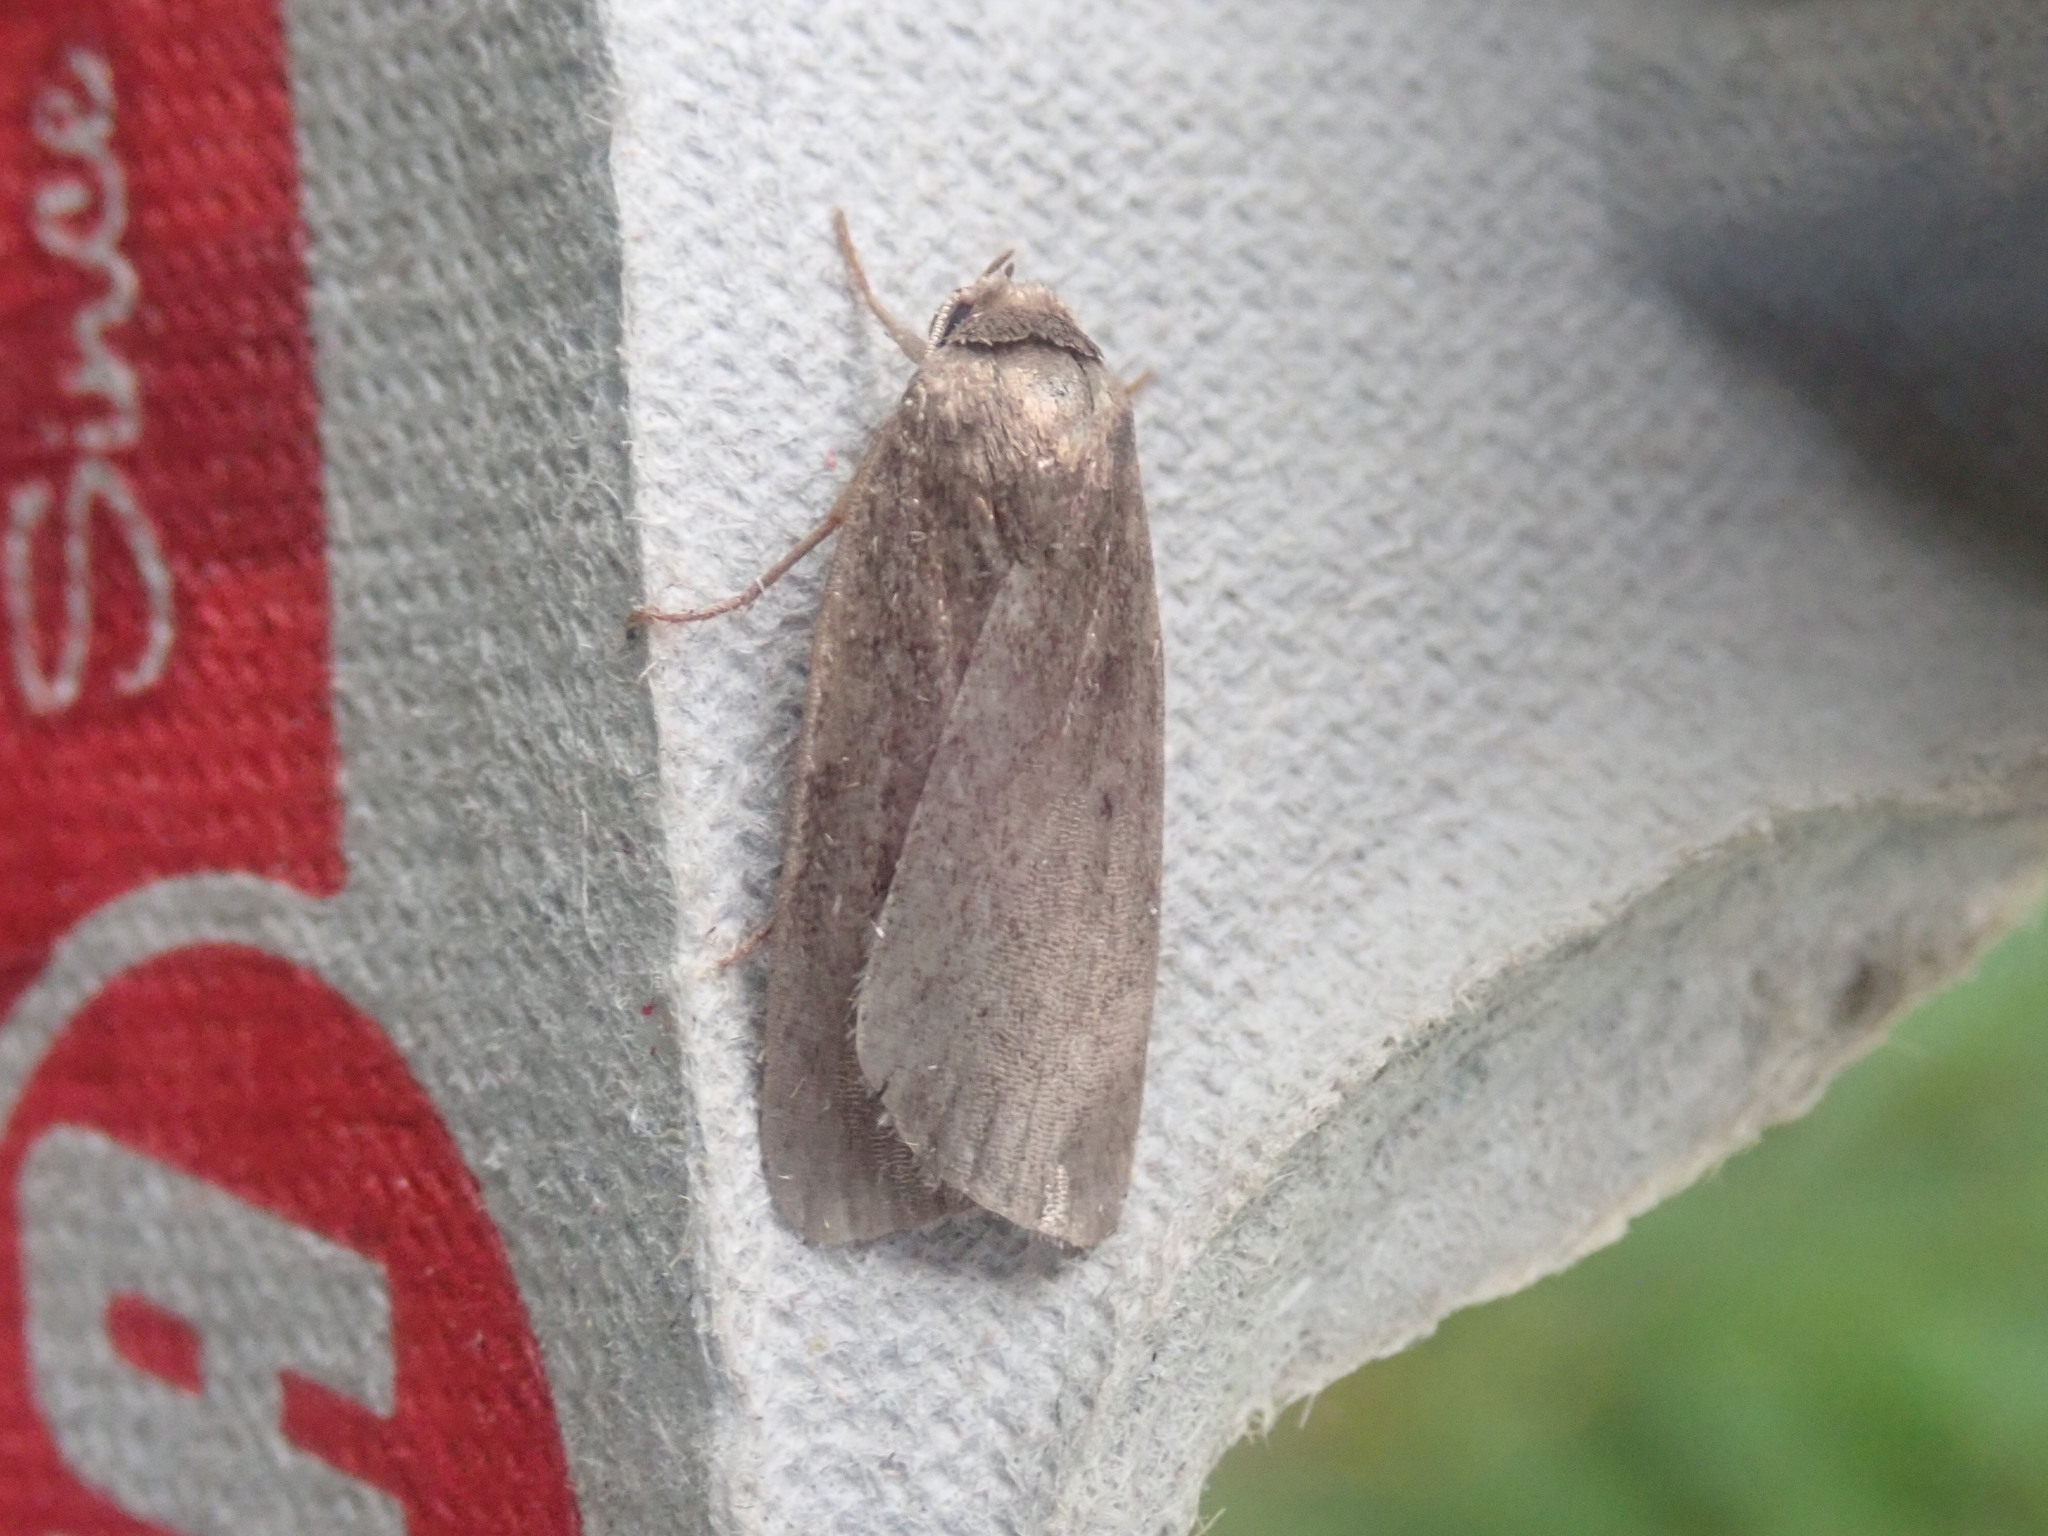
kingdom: Animalia
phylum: Arthropoda
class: Insecta
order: Lepidoptera
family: Noctuidae
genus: Proxenus
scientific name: Proxenus miranda
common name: Miranda moth
